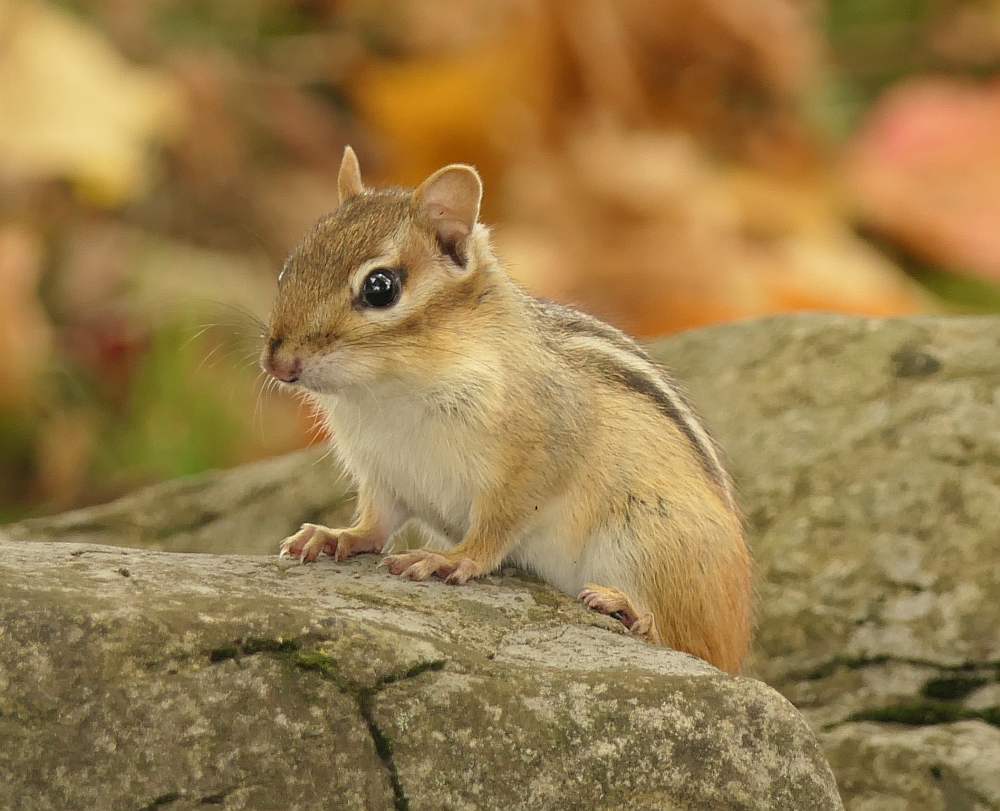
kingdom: Animalia
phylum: Chordata
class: Mammalia
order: Rodentia
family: Sciuridae
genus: Tamias
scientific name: Tamias striatus
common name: Eastern chipmunk
